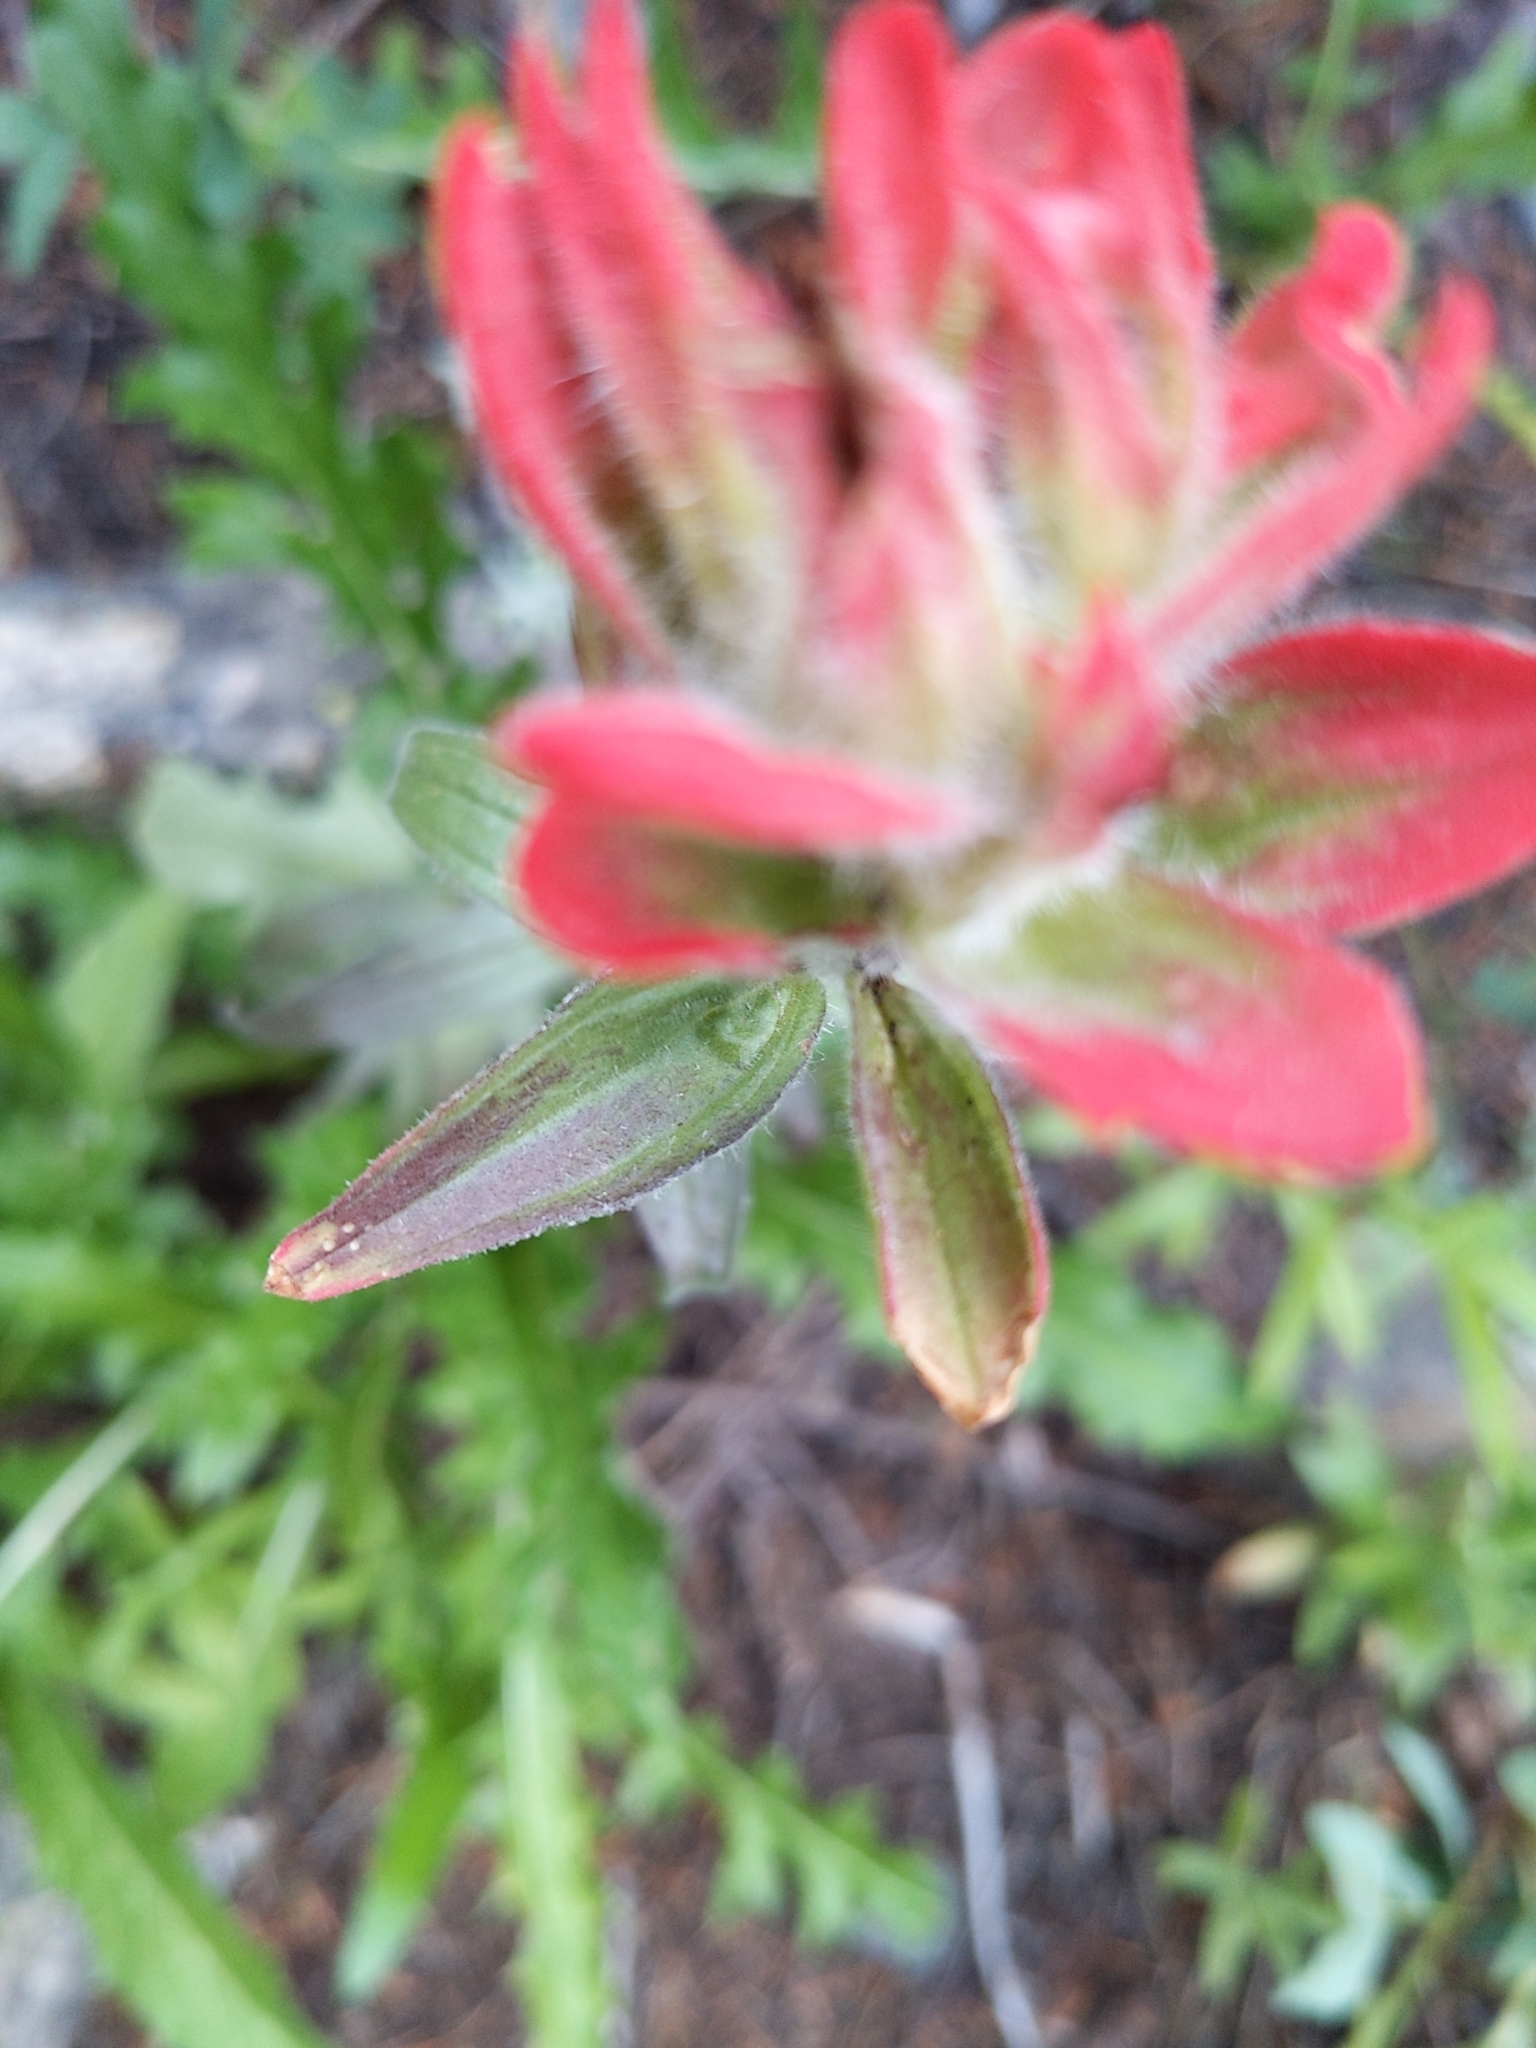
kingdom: Plantae
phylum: Tracheophyta
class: Magnoliopsida
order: Lamiales
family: Orobanchaceae
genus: Castilleja
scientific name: Castilleja rhexifolia
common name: Rocky mountain paintbrush
